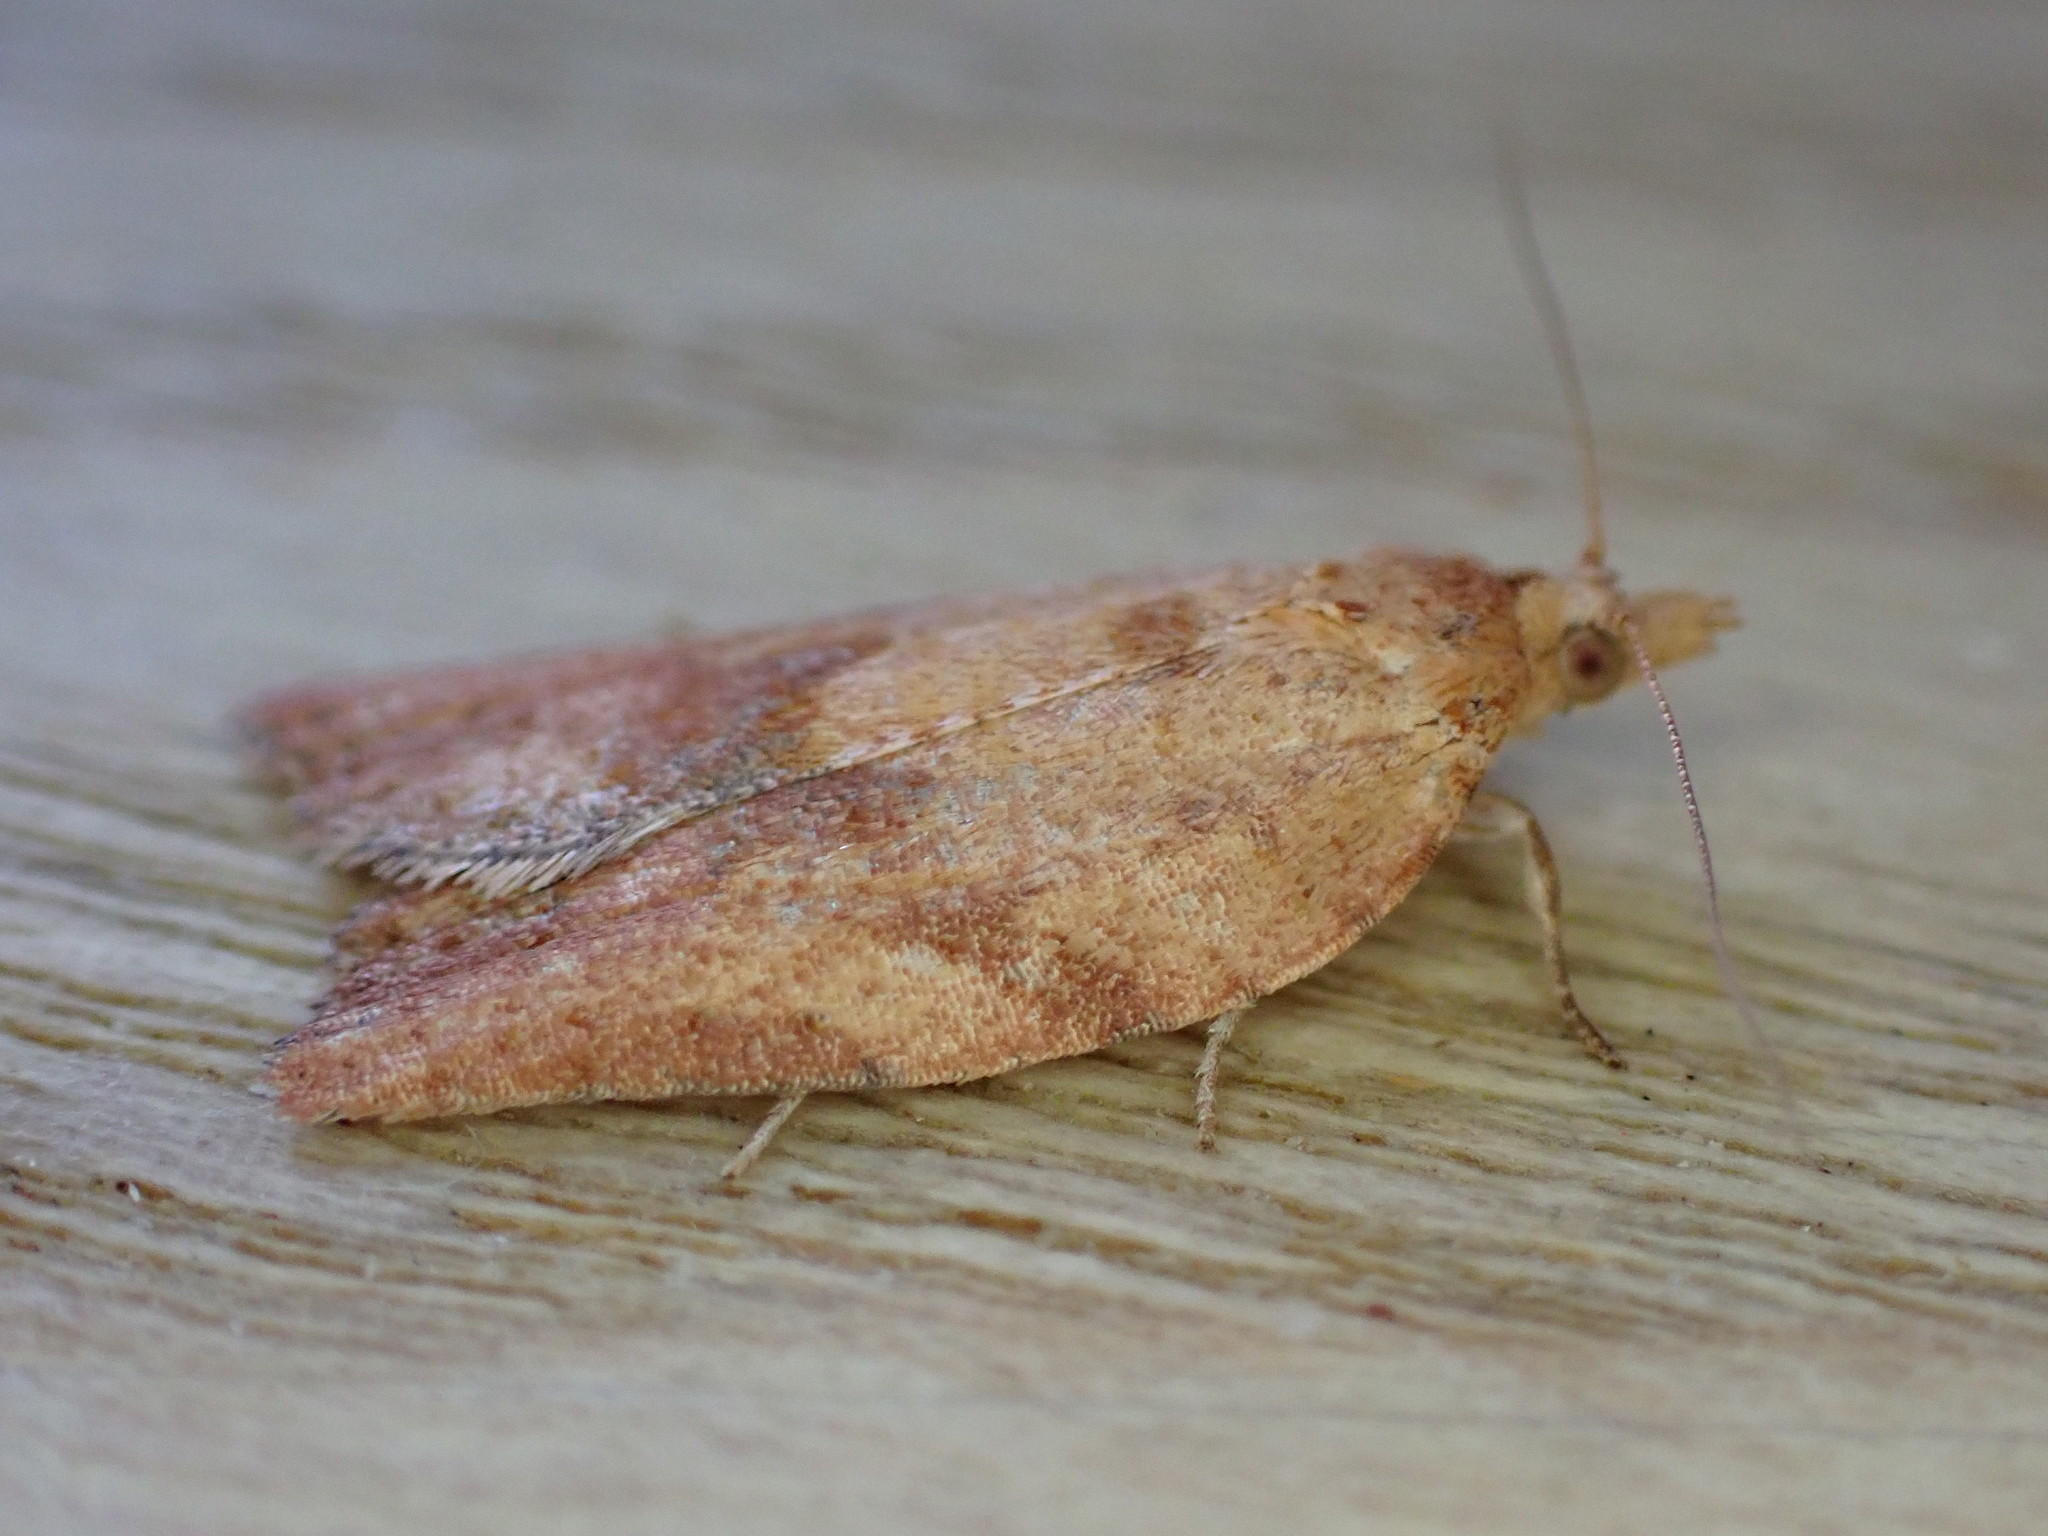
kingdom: Animalia
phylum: Arthropoda
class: Insecta
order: Lepidoptera
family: Tortricidae
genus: Epiphyas
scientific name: Epiphyas postvittana
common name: Light brown apple moth
